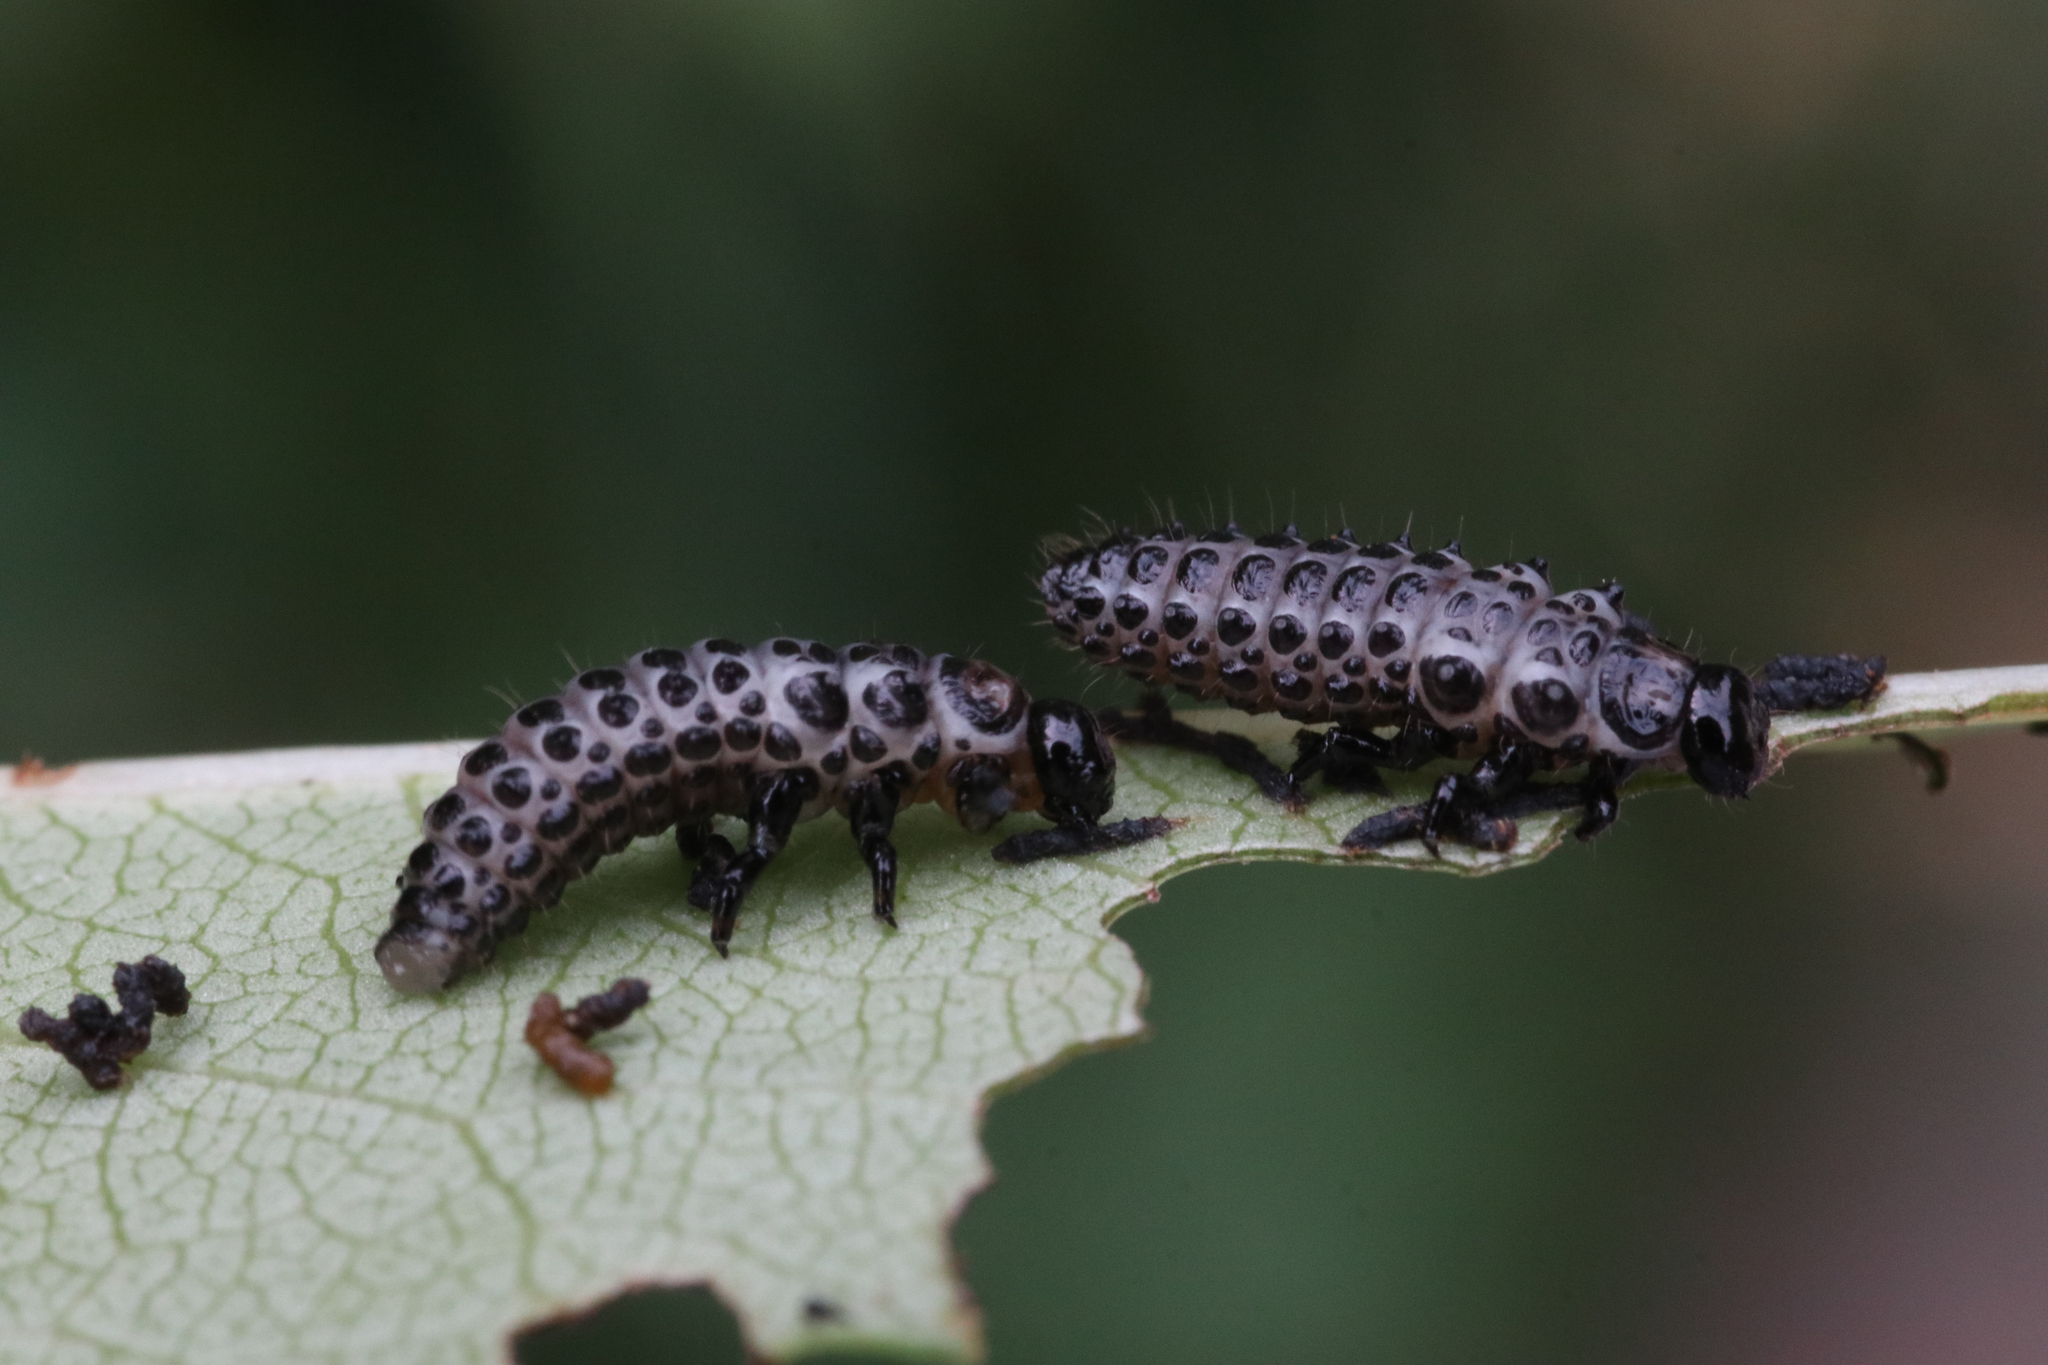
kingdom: Animalia
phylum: Arthropoda
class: Insecta
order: Coleoptera
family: Chrysomelidae
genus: Chrysomela
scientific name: Chrysomela vigintipunctata
